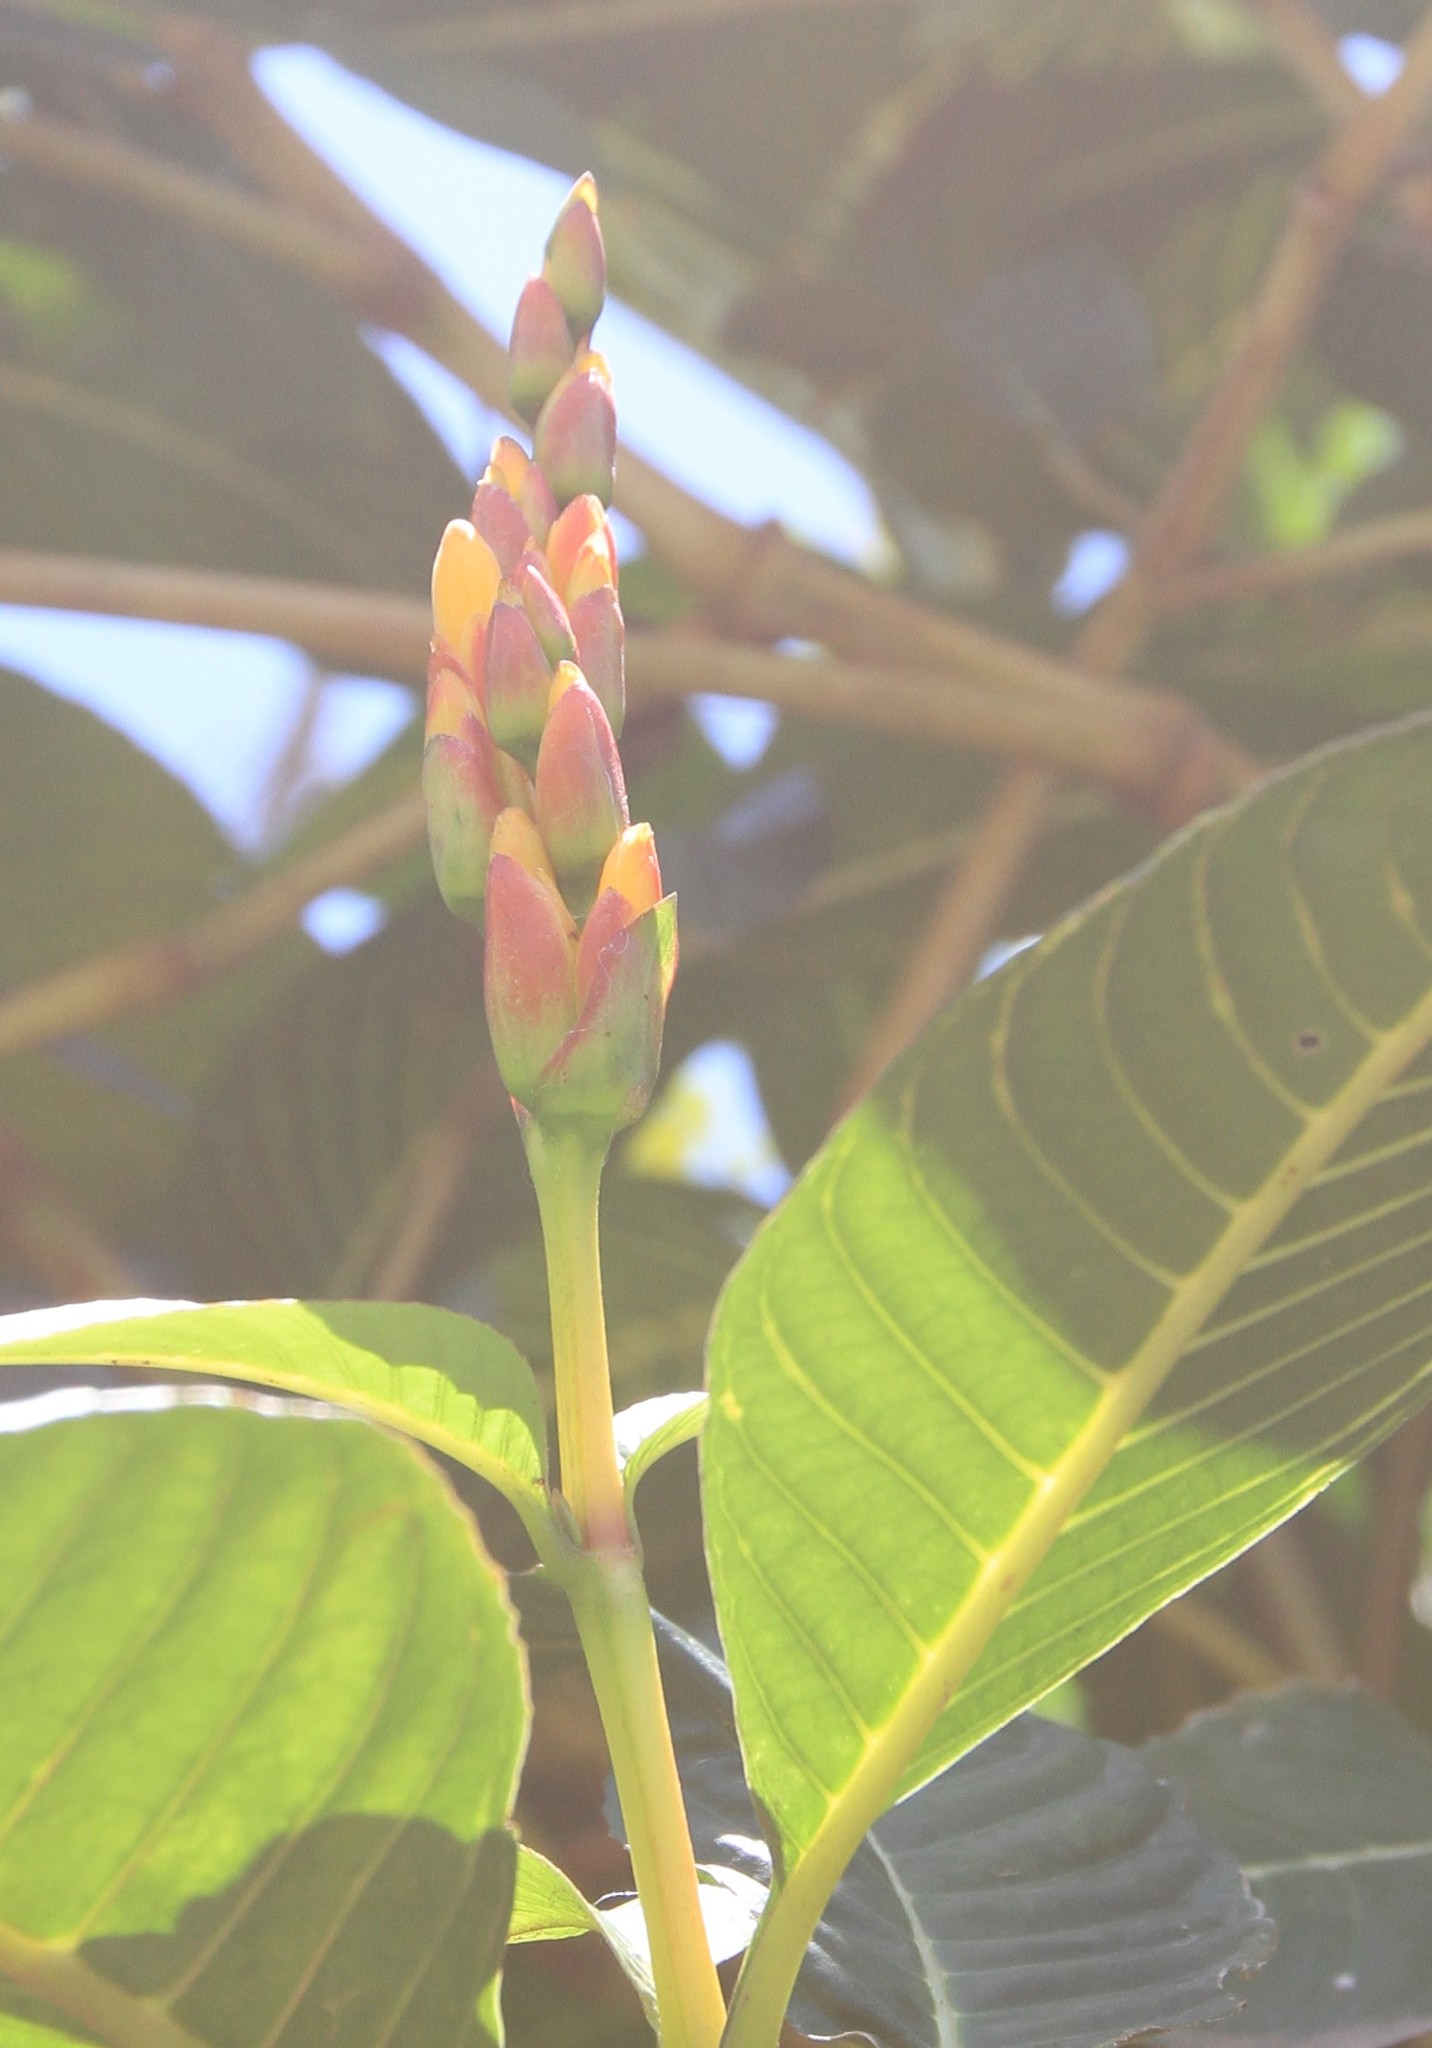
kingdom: Plantae
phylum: Tracheophyta
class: Magnoliopsida
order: Lamiales
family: Acanthaceae
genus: Sanchezia
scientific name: Sanchezia parvibracteata
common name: Sanchezia
